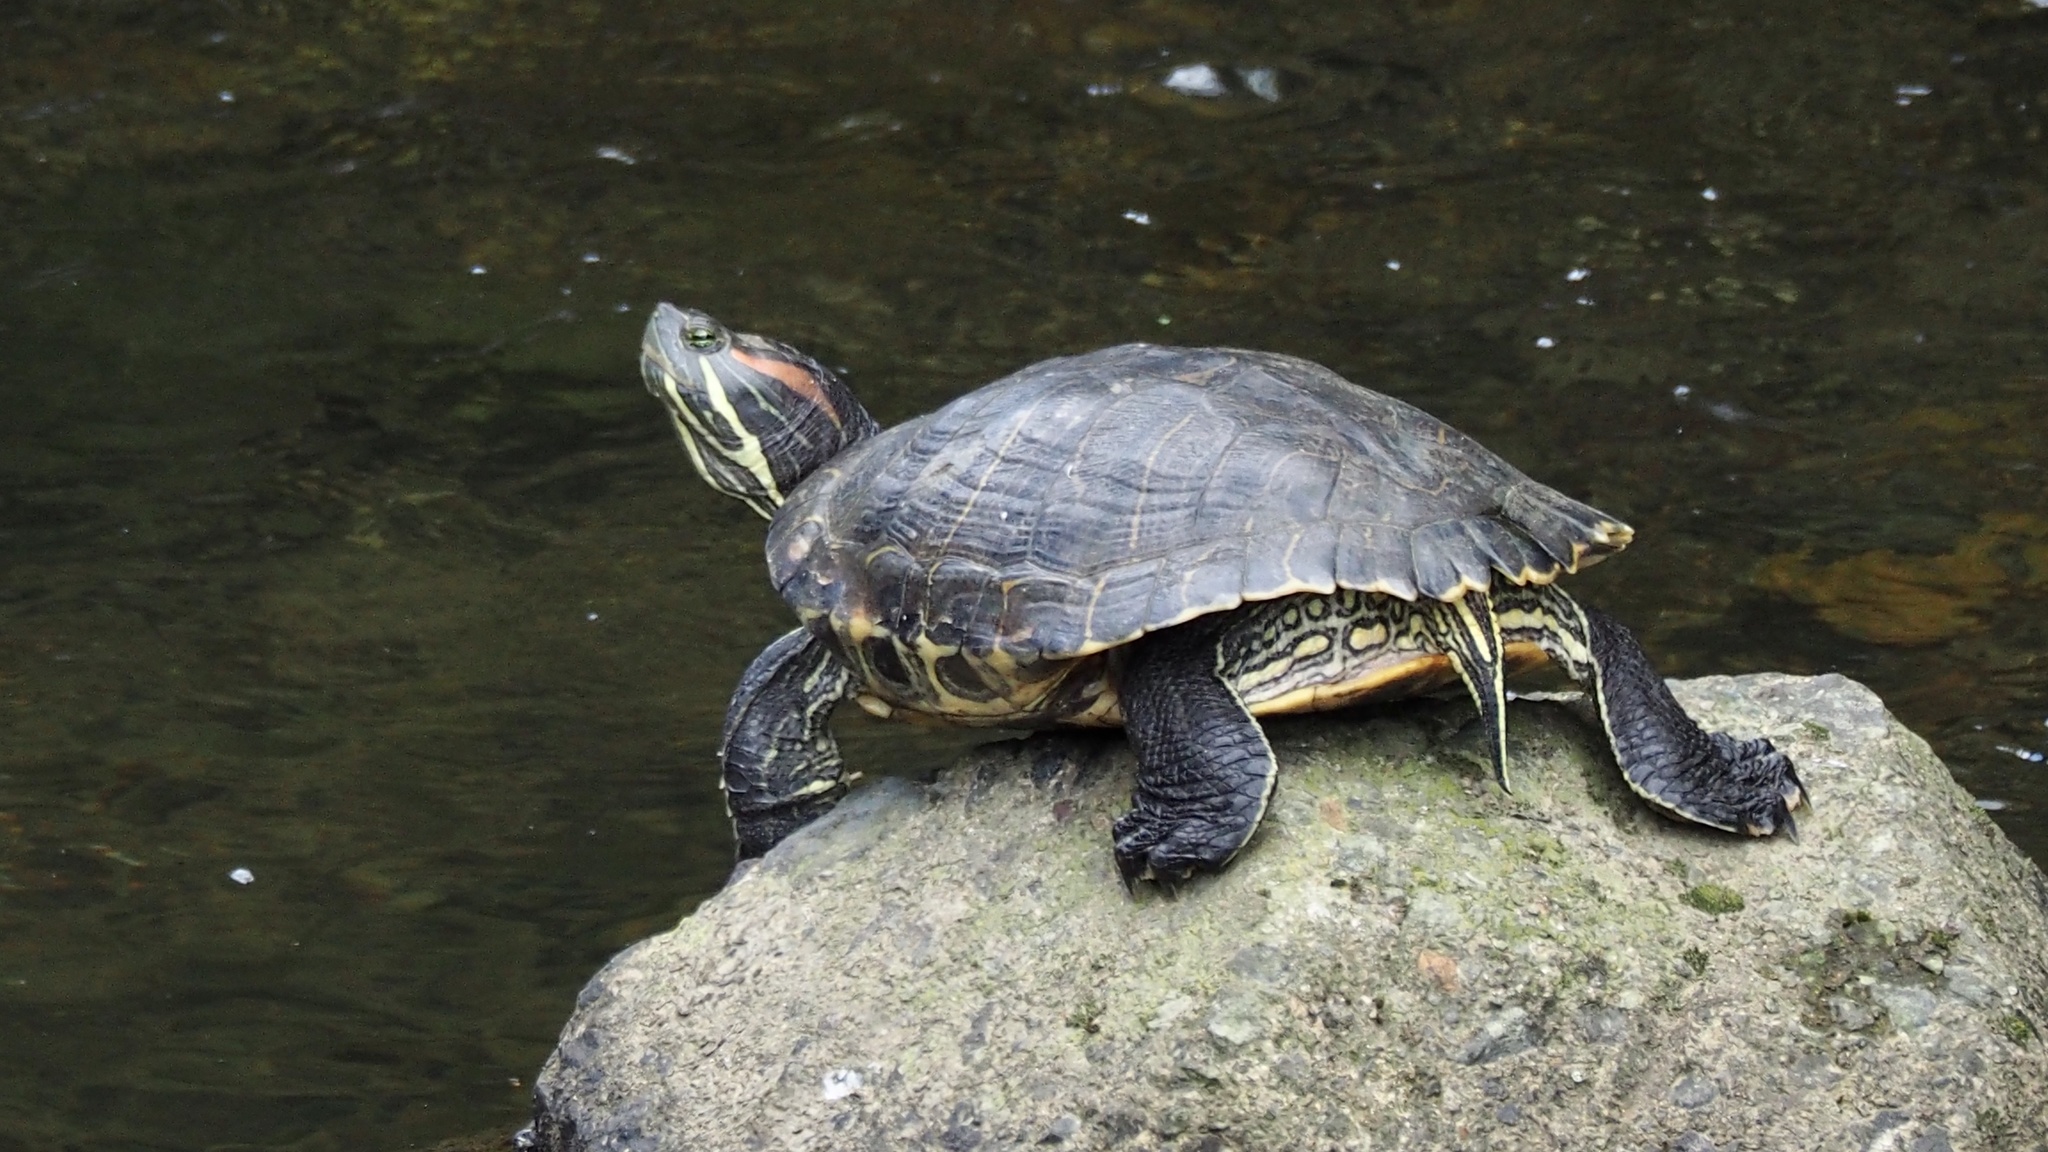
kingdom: Animalia
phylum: Chordata
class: Testudines
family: Emydidae
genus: Trachemys
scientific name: Trachemys scripta
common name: Slider
